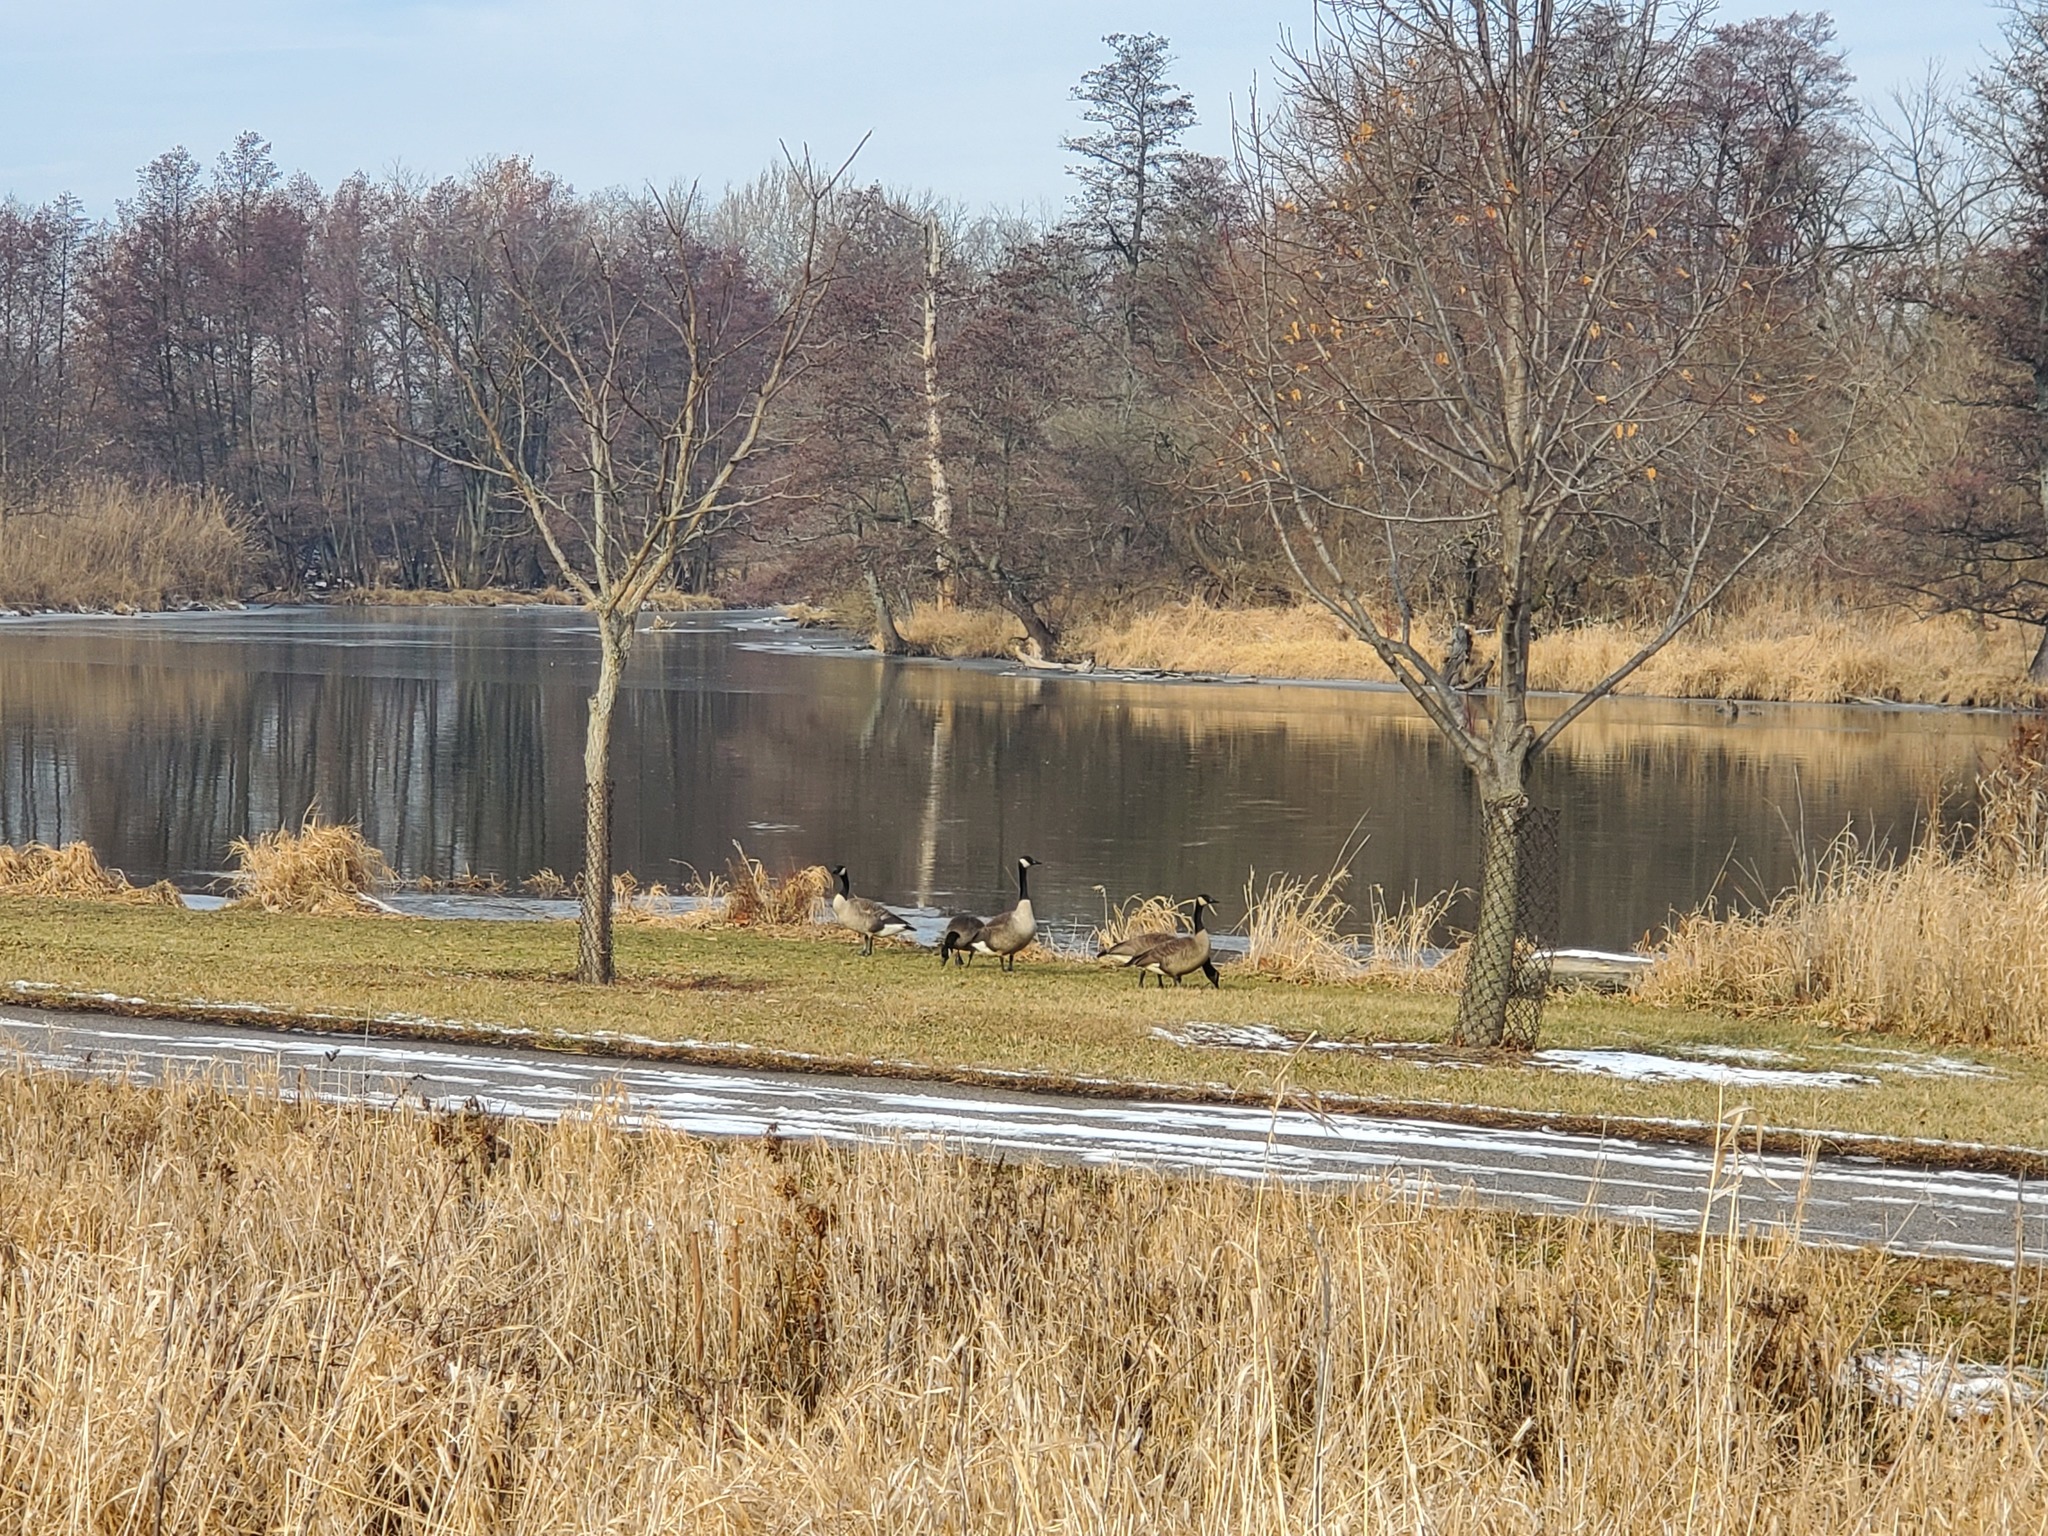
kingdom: Animalia
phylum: Chordata
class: Aves
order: Anseriformes
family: Anatidae
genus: Branta
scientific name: Branta canadensis
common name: Canada goose
